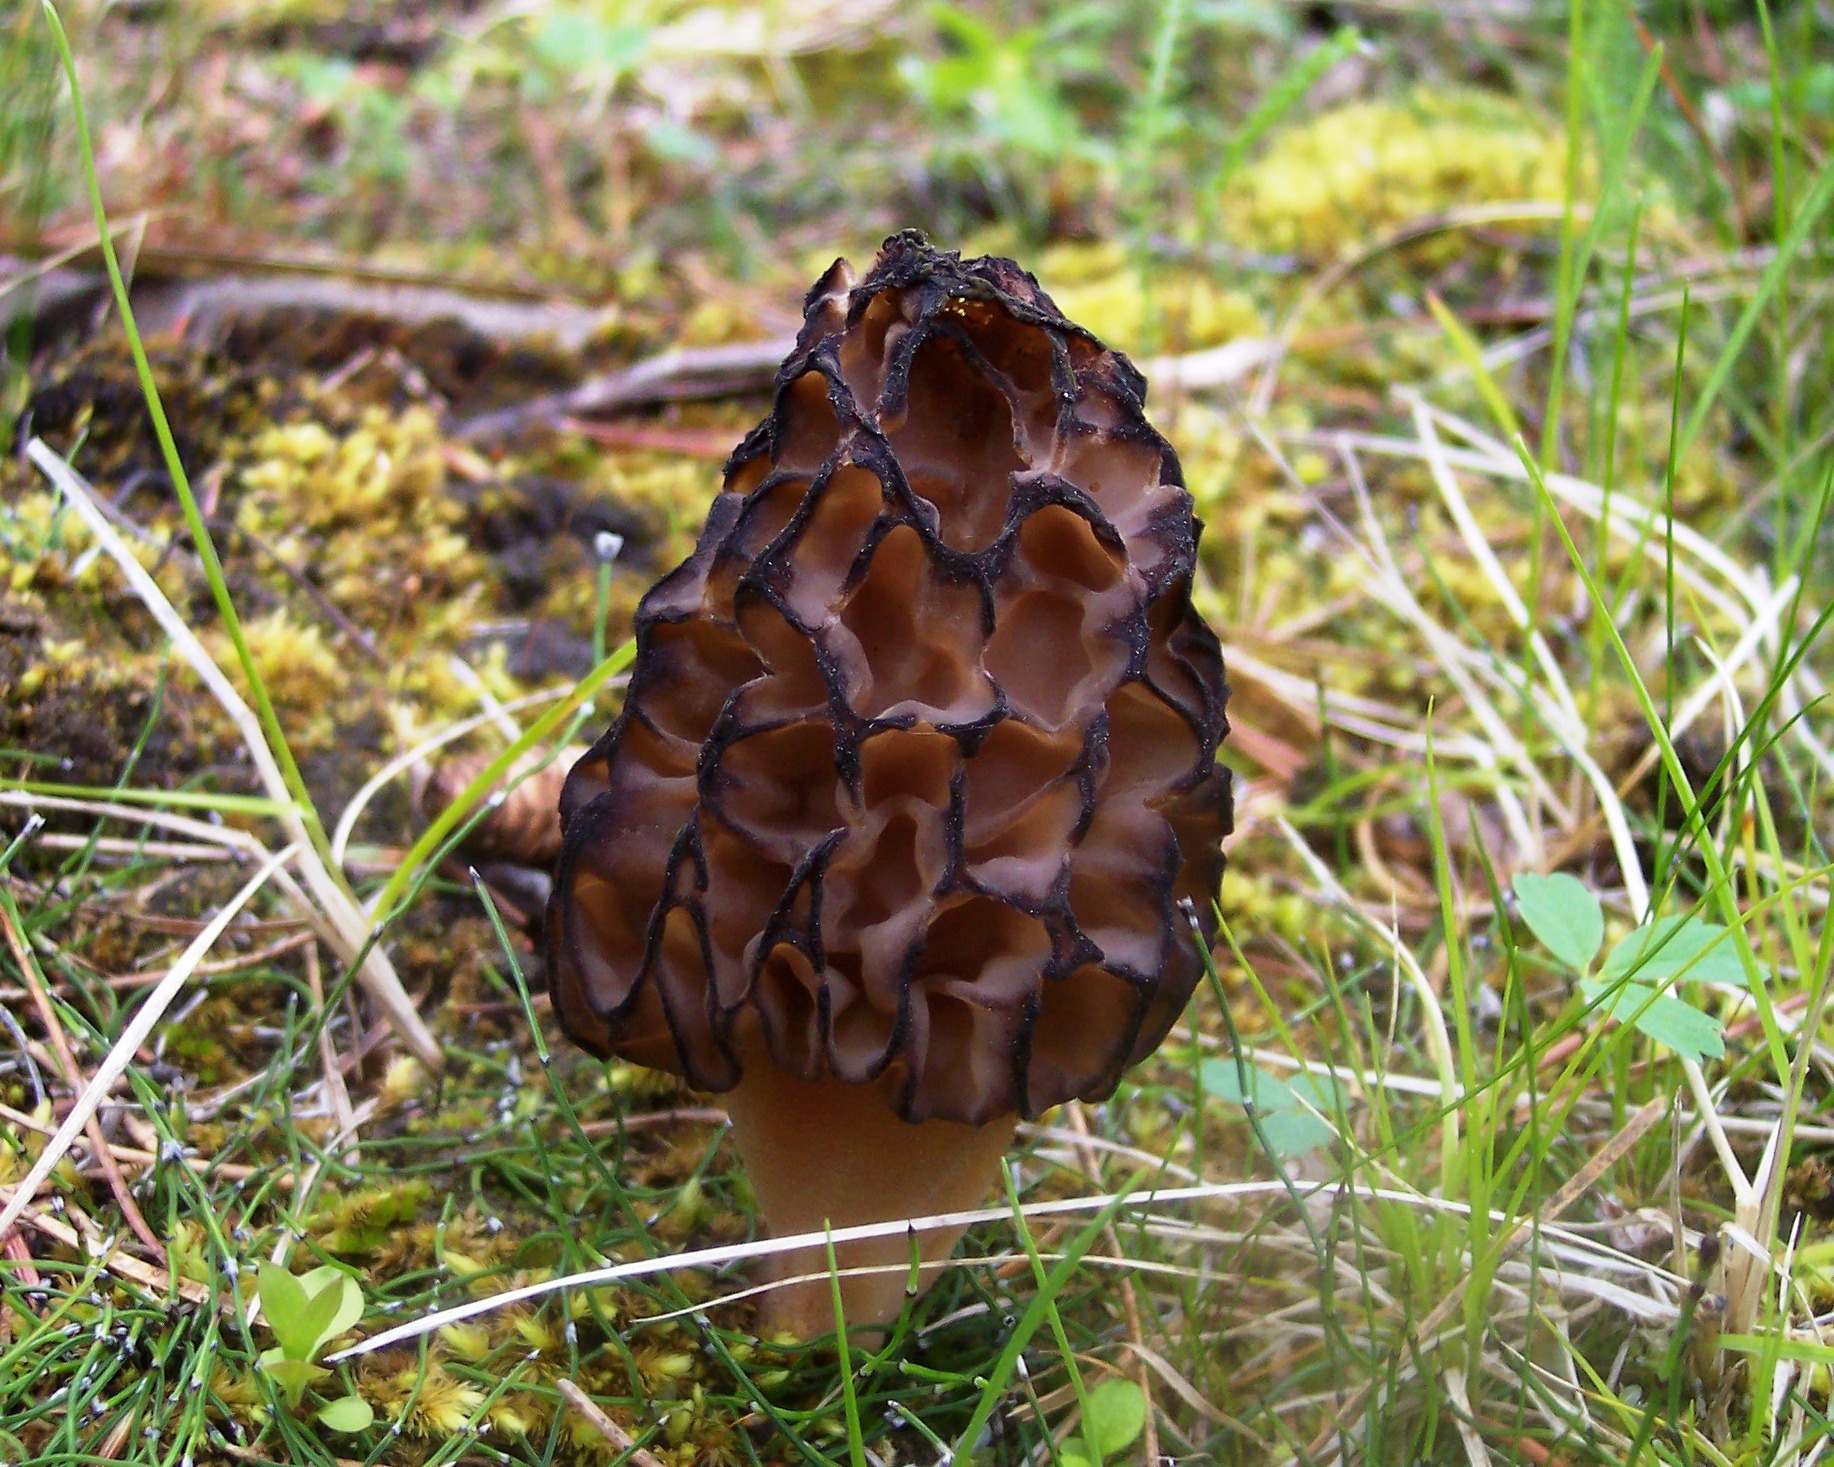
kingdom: Fungi
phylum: Ascomycota
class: Pezizomycetes
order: Pezizales
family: Morchellaceae
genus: Morchella
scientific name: Morchella norvegiensis
